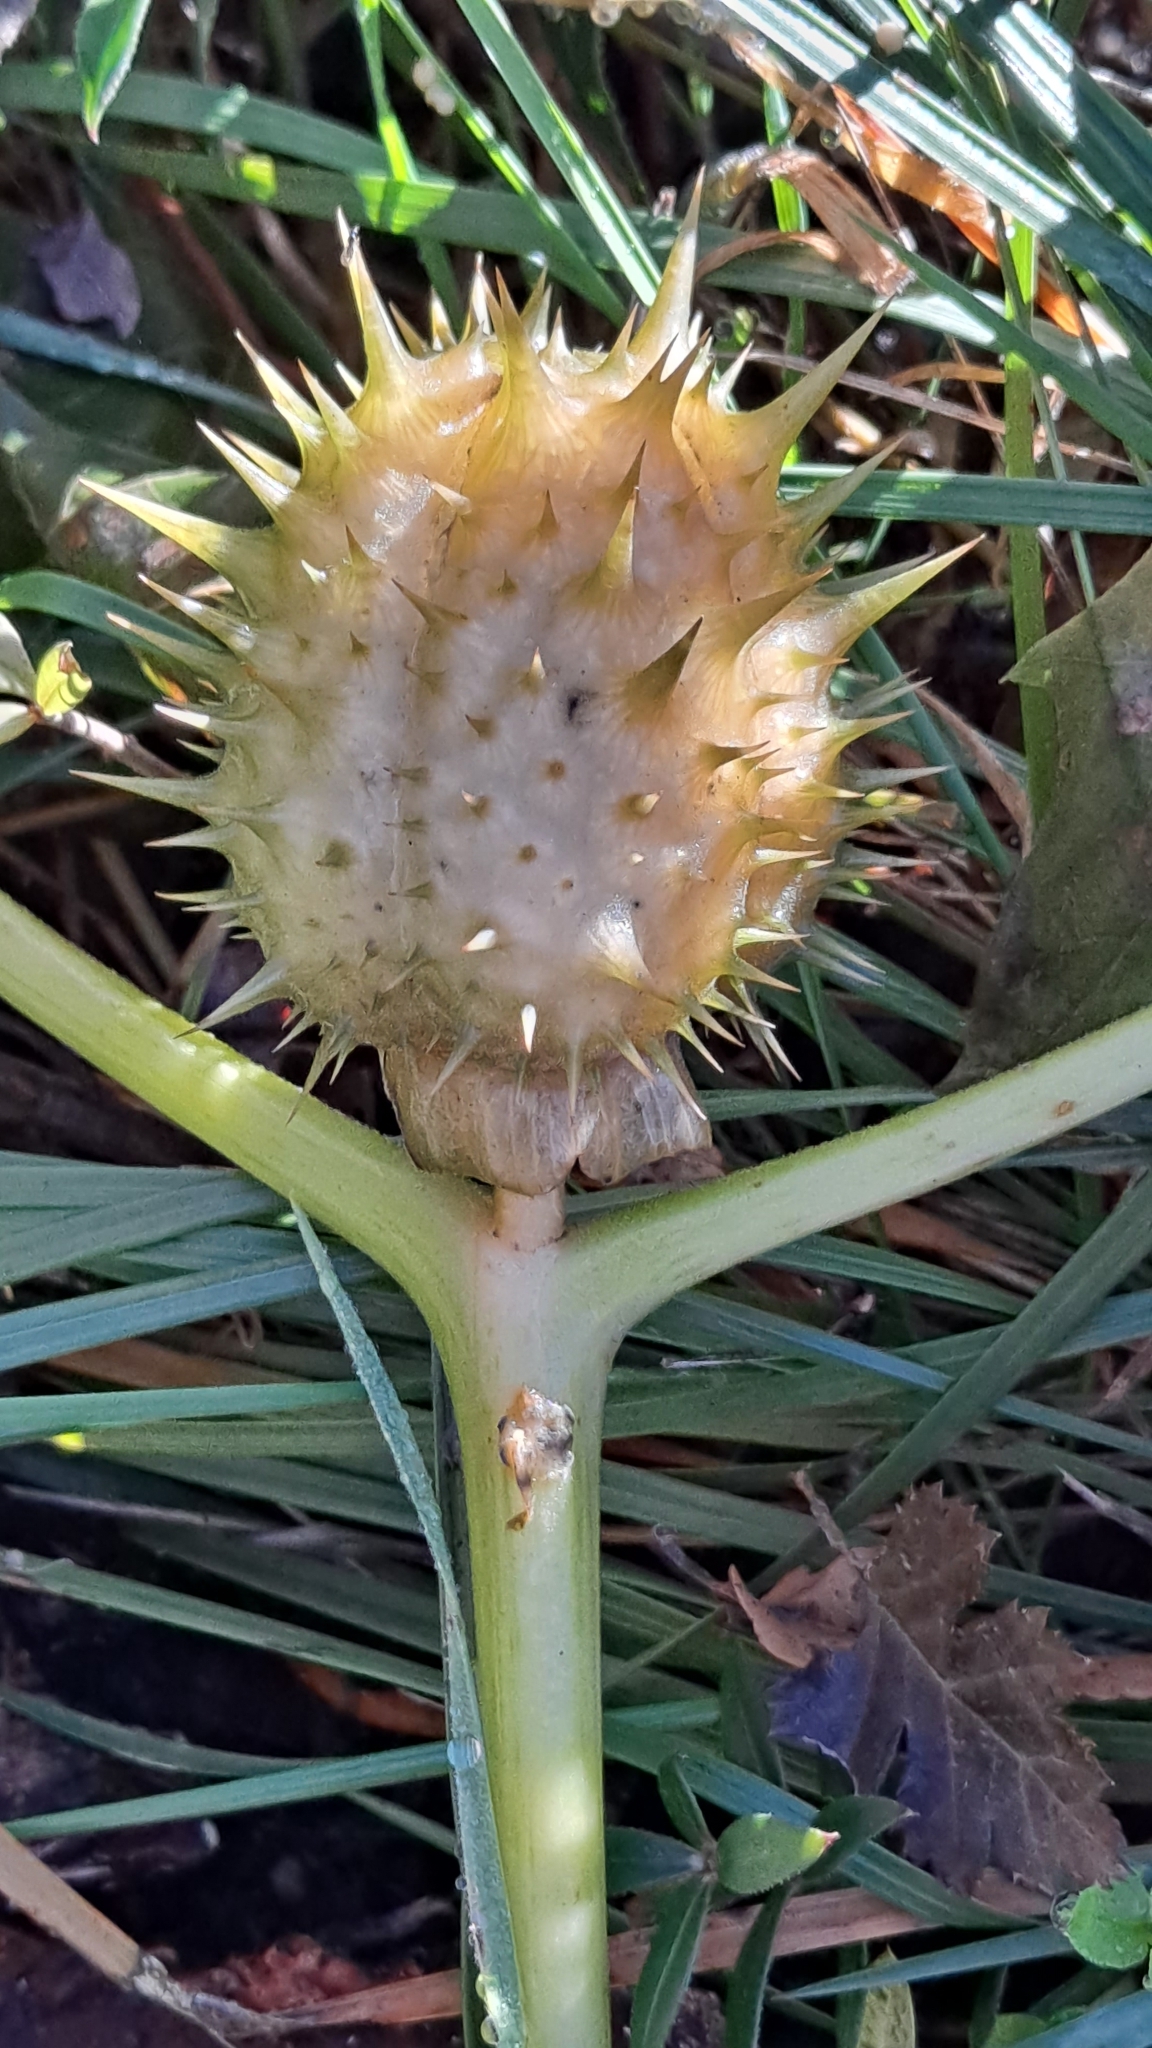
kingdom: Plantae
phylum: Tracheophyta
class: Magnoliopsida
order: Solanales
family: Solanaceae
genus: Datura
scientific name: Datura stramonium
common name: Thorn-apple
